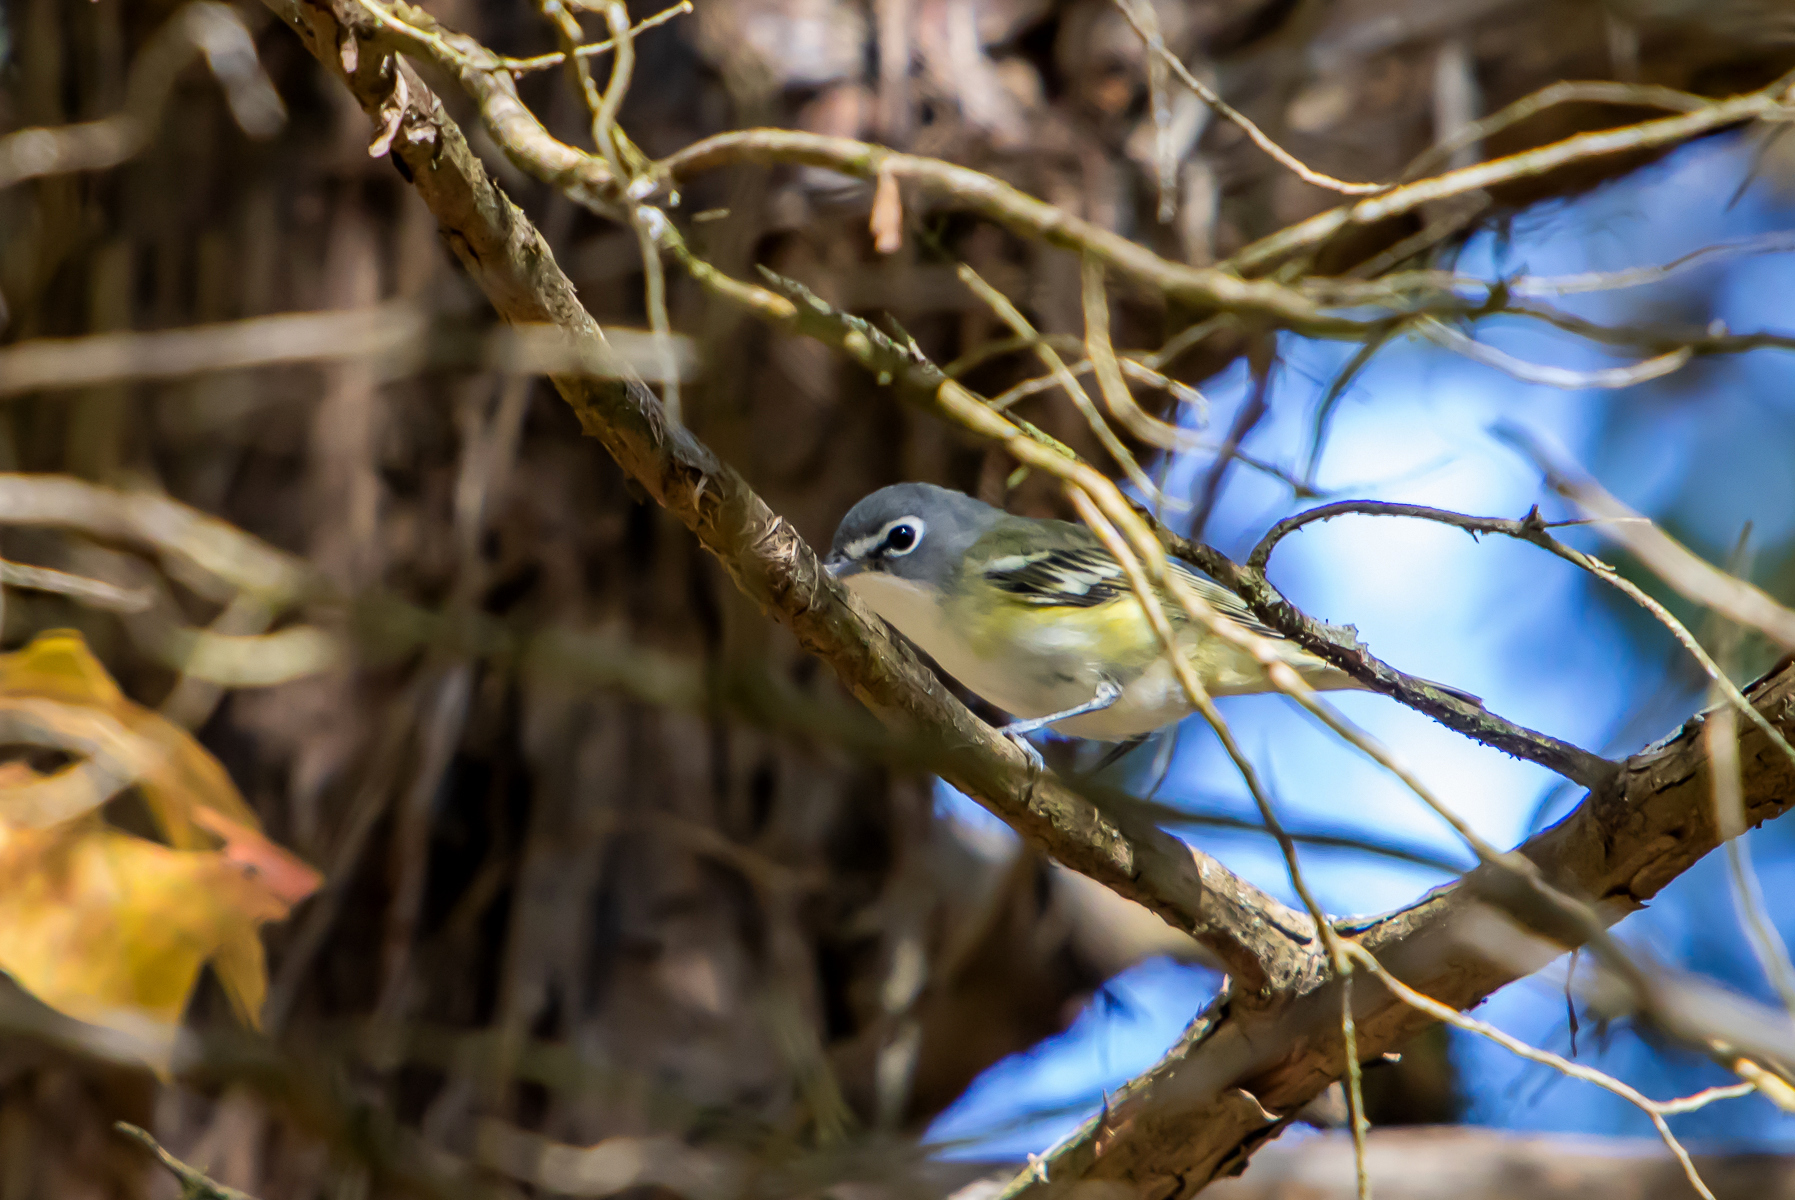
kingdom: Animalia
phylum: Chordata
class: Aves
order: Passeriformes
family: Vireonidae
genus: Vireo
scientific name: Vireo solitarius
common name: Blue-headed vireo
